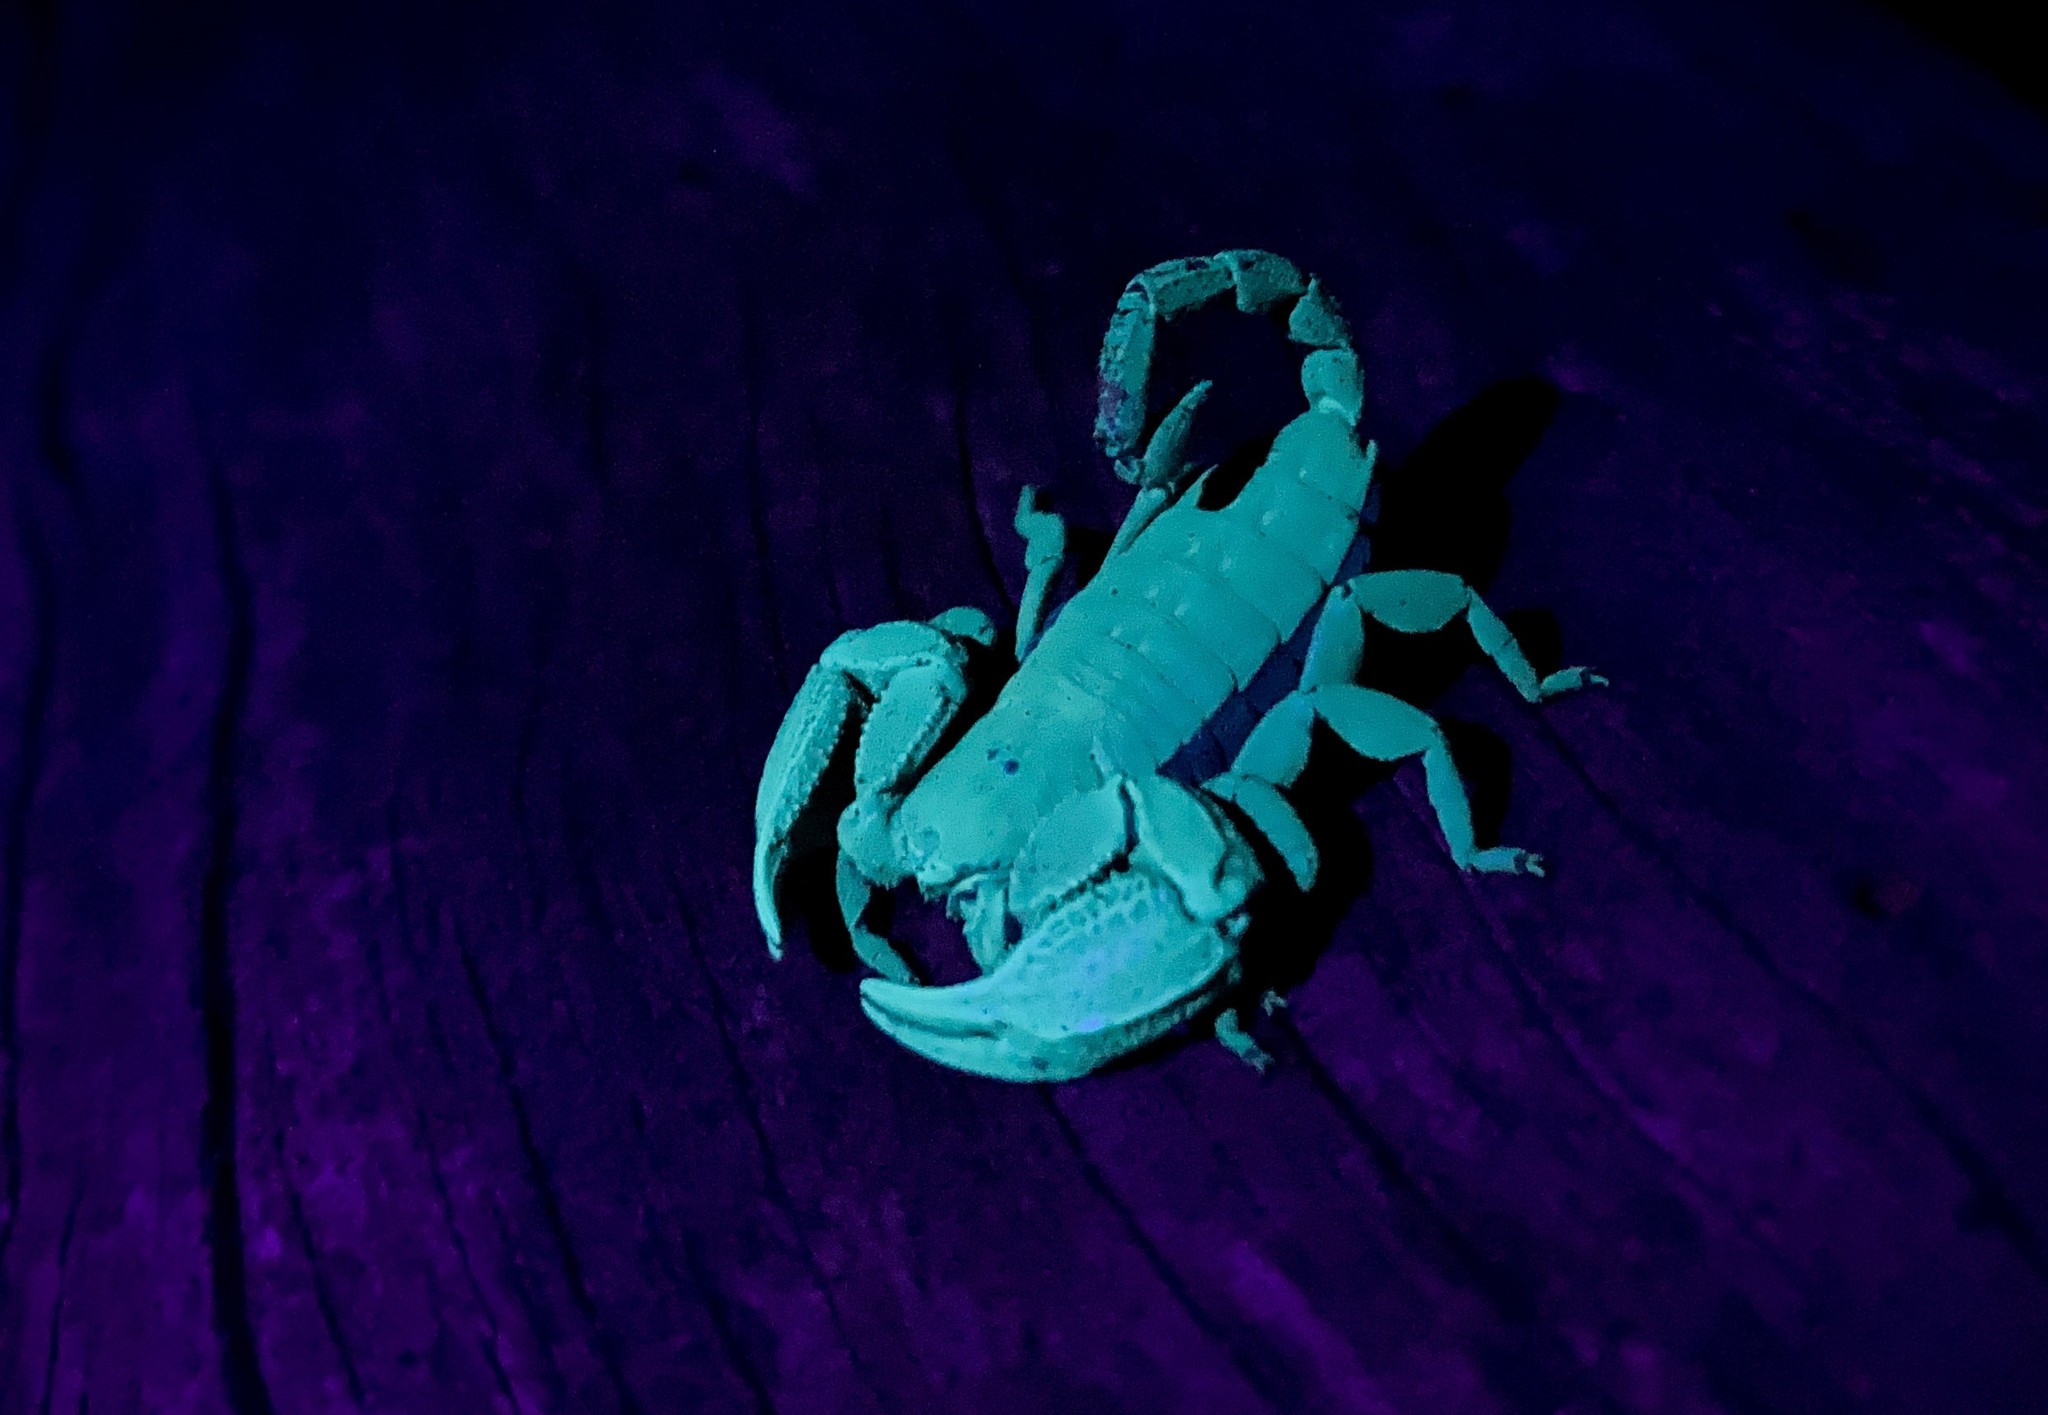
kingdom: Animalia
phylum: Arthropoda
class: Arachnida
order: Scorpiones
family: Hormuridae
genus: Opisthacanthus
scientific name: Opisthacanthus capensis
